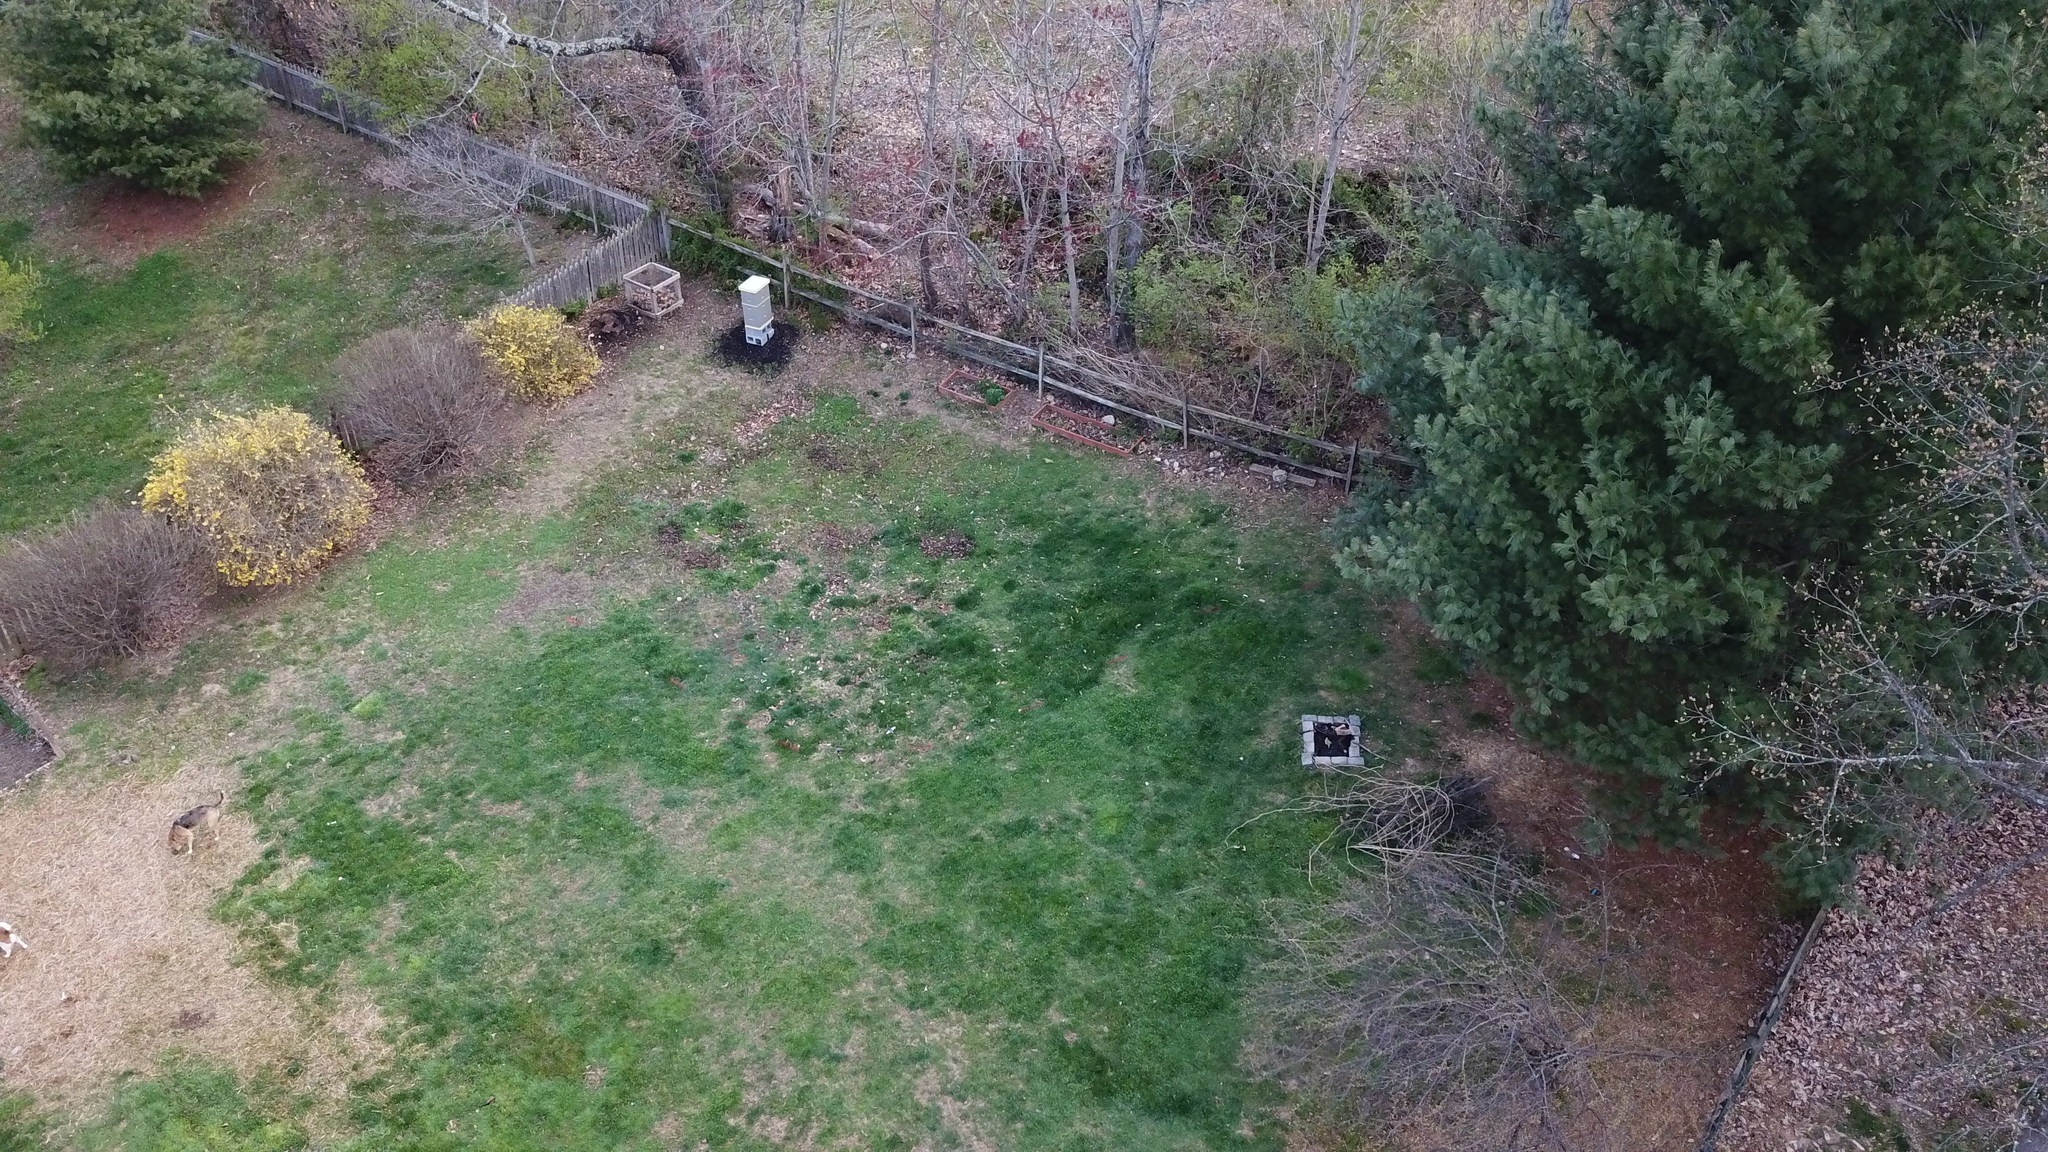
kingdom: Plantae
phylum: Tracheophyta
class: Pinopsida
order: Pinales
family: Pinaceae
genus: Pinus
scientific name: Pinus strobus
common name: Weymouth pine
